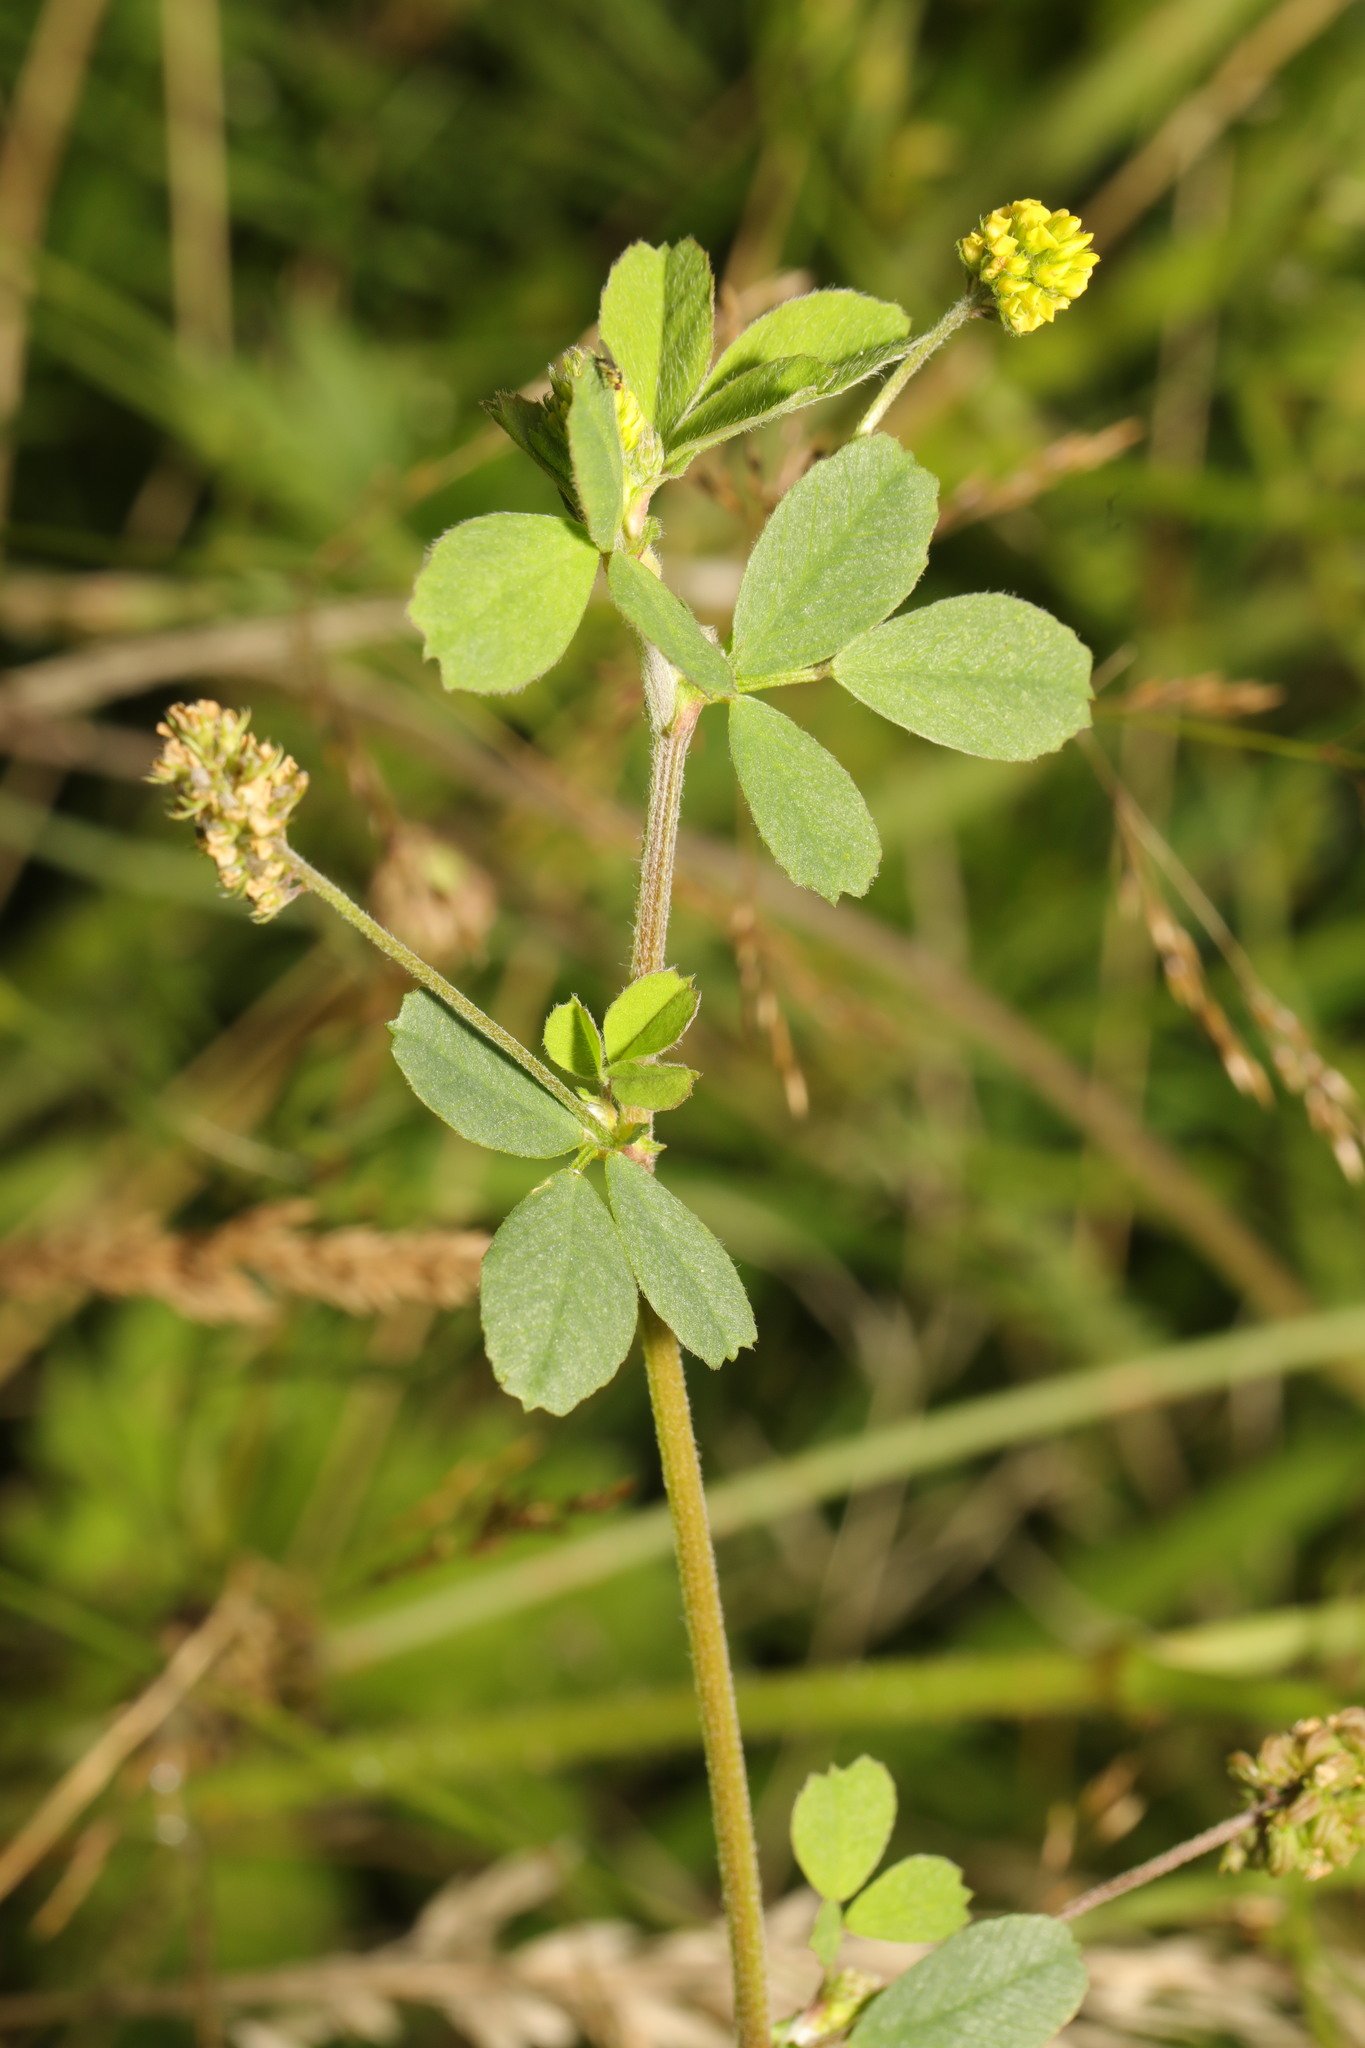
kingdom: Plantae
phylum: Tracheophyta
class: Magnoliopsida
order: Fabales
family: Fabaceae
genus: Medicago
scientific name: Medicago lupulina
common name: Black medick
